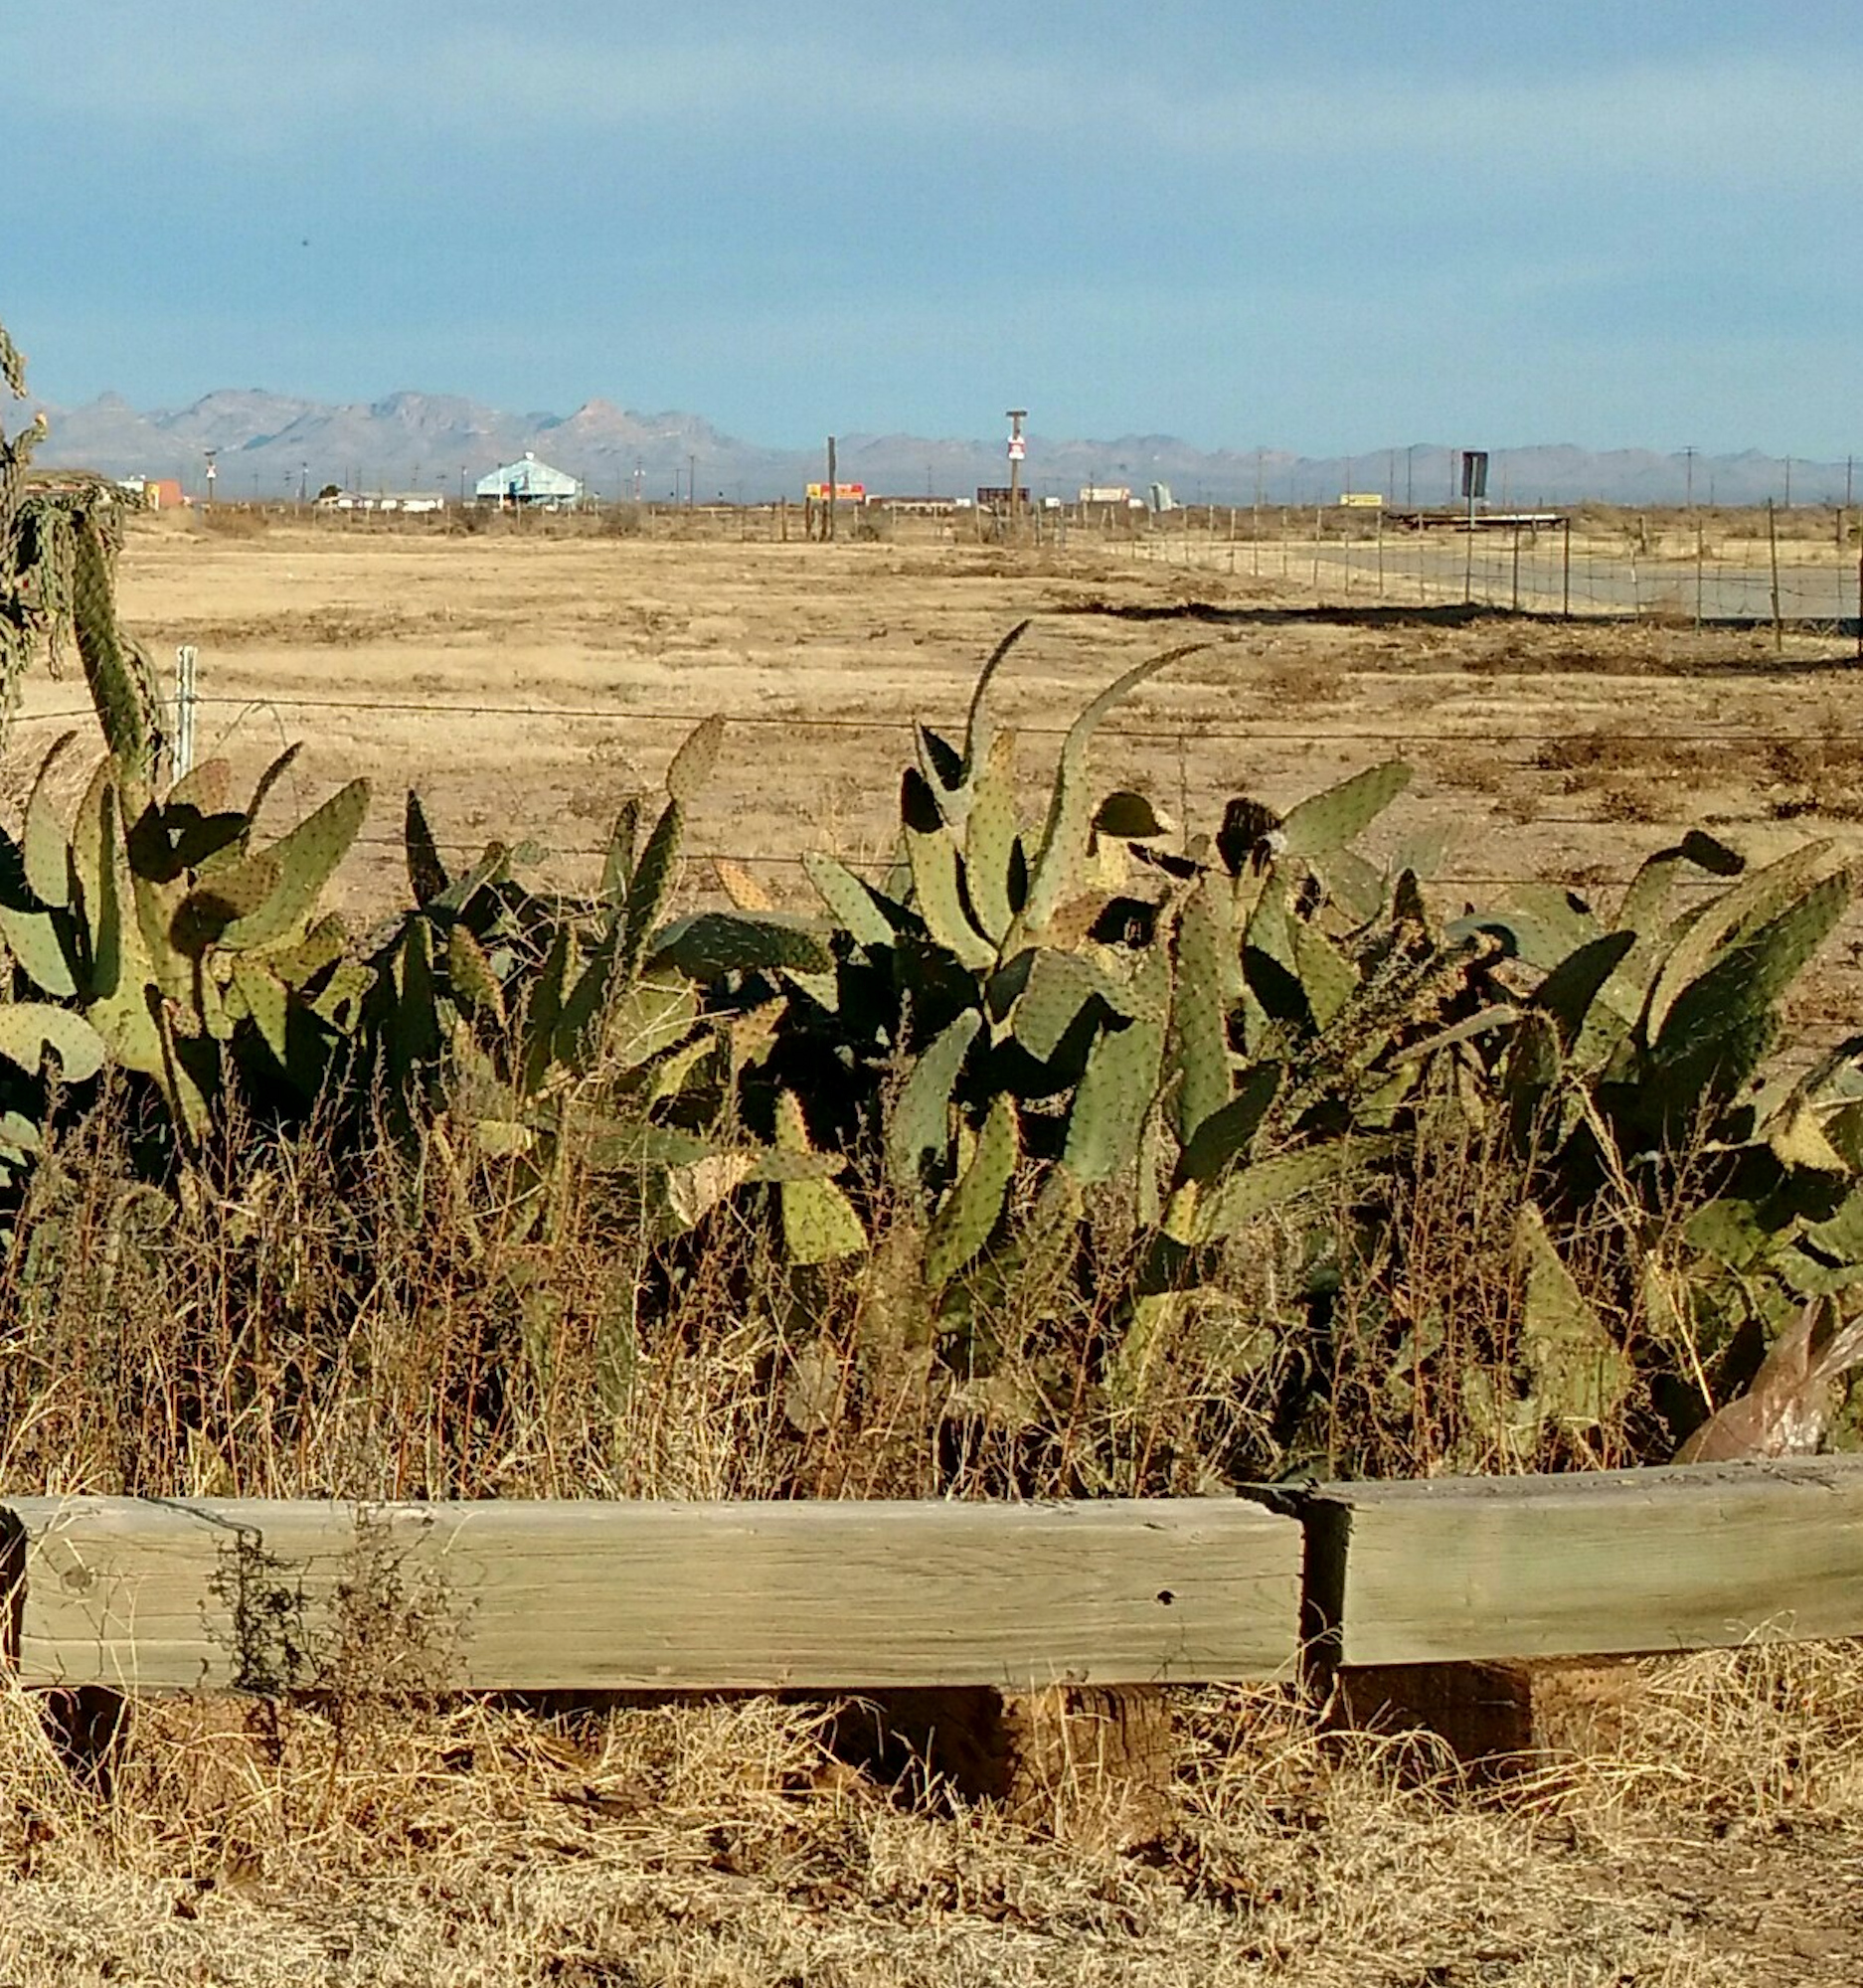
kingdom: Plantae
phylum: Tracheophyta
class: Magnoliopsida
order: Caryophyllales
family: Cactaceae
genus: Opuntia
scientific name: Opuntia engelmannii
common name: Cactus-apple
